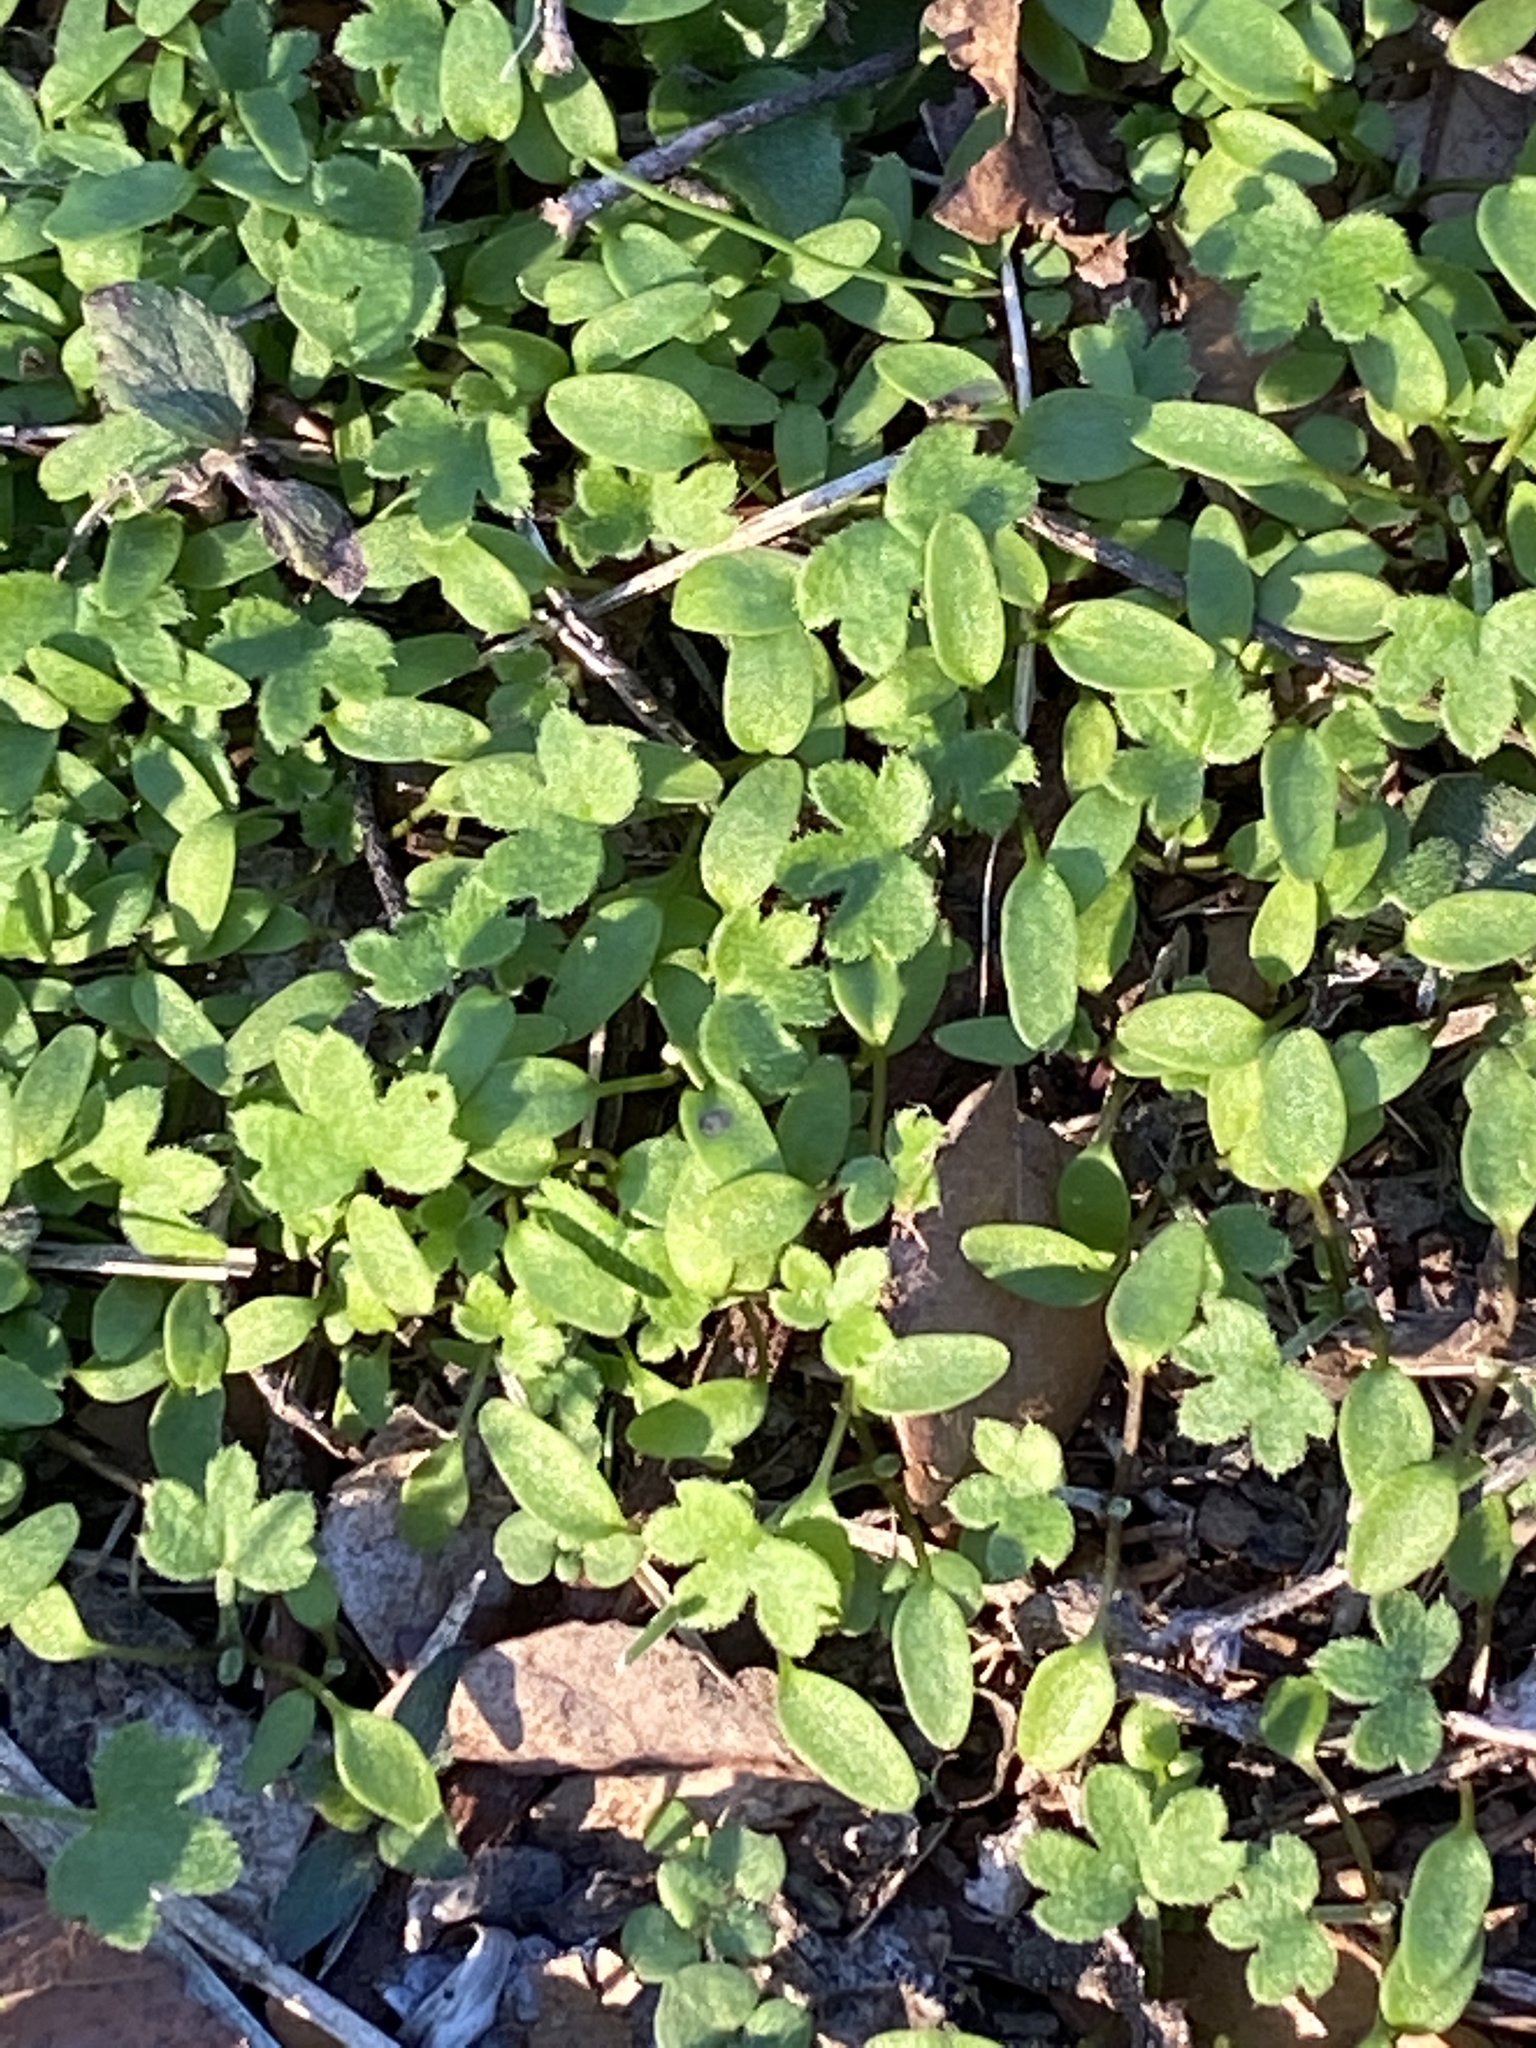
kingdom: Plantae
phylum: Tracheophyta
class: Magnoliopsida
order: Apiales
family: Apiaceae
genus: Bowlesia
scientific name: Bowlesia incana
